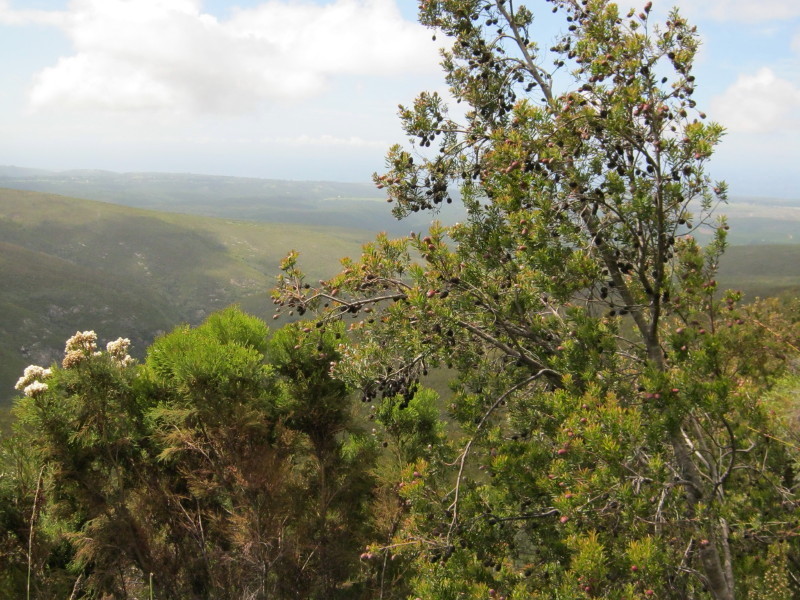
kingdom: Plantae
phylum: Tracheophyta
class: Magnoliopsida
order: Proteales
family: Proteaceae
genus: Leucadendron
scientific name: Leucadendron conicum
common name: Garden route conebush
